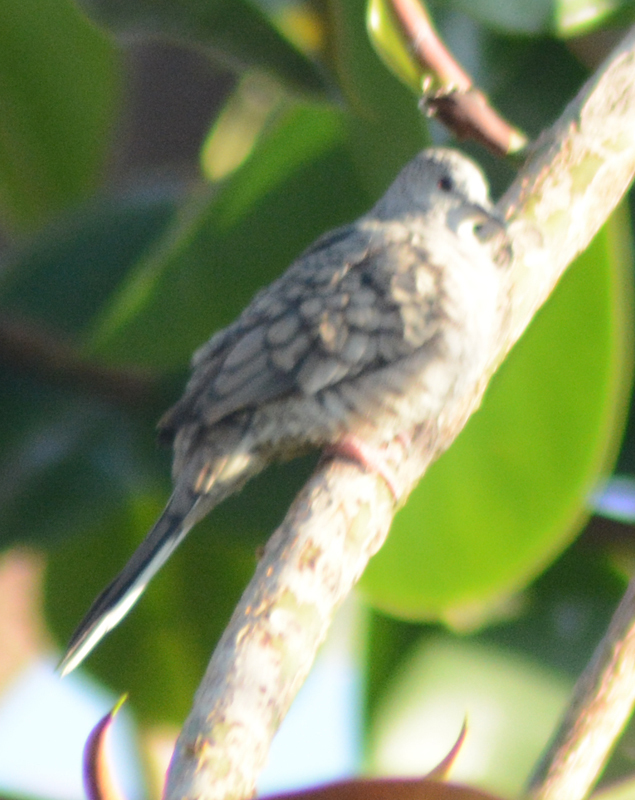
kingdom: Animalia
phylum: Chordata
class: Aves
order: Columbiformes
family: Columbidae
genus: Columbina
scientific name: Columbina inca
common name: Inca dove
